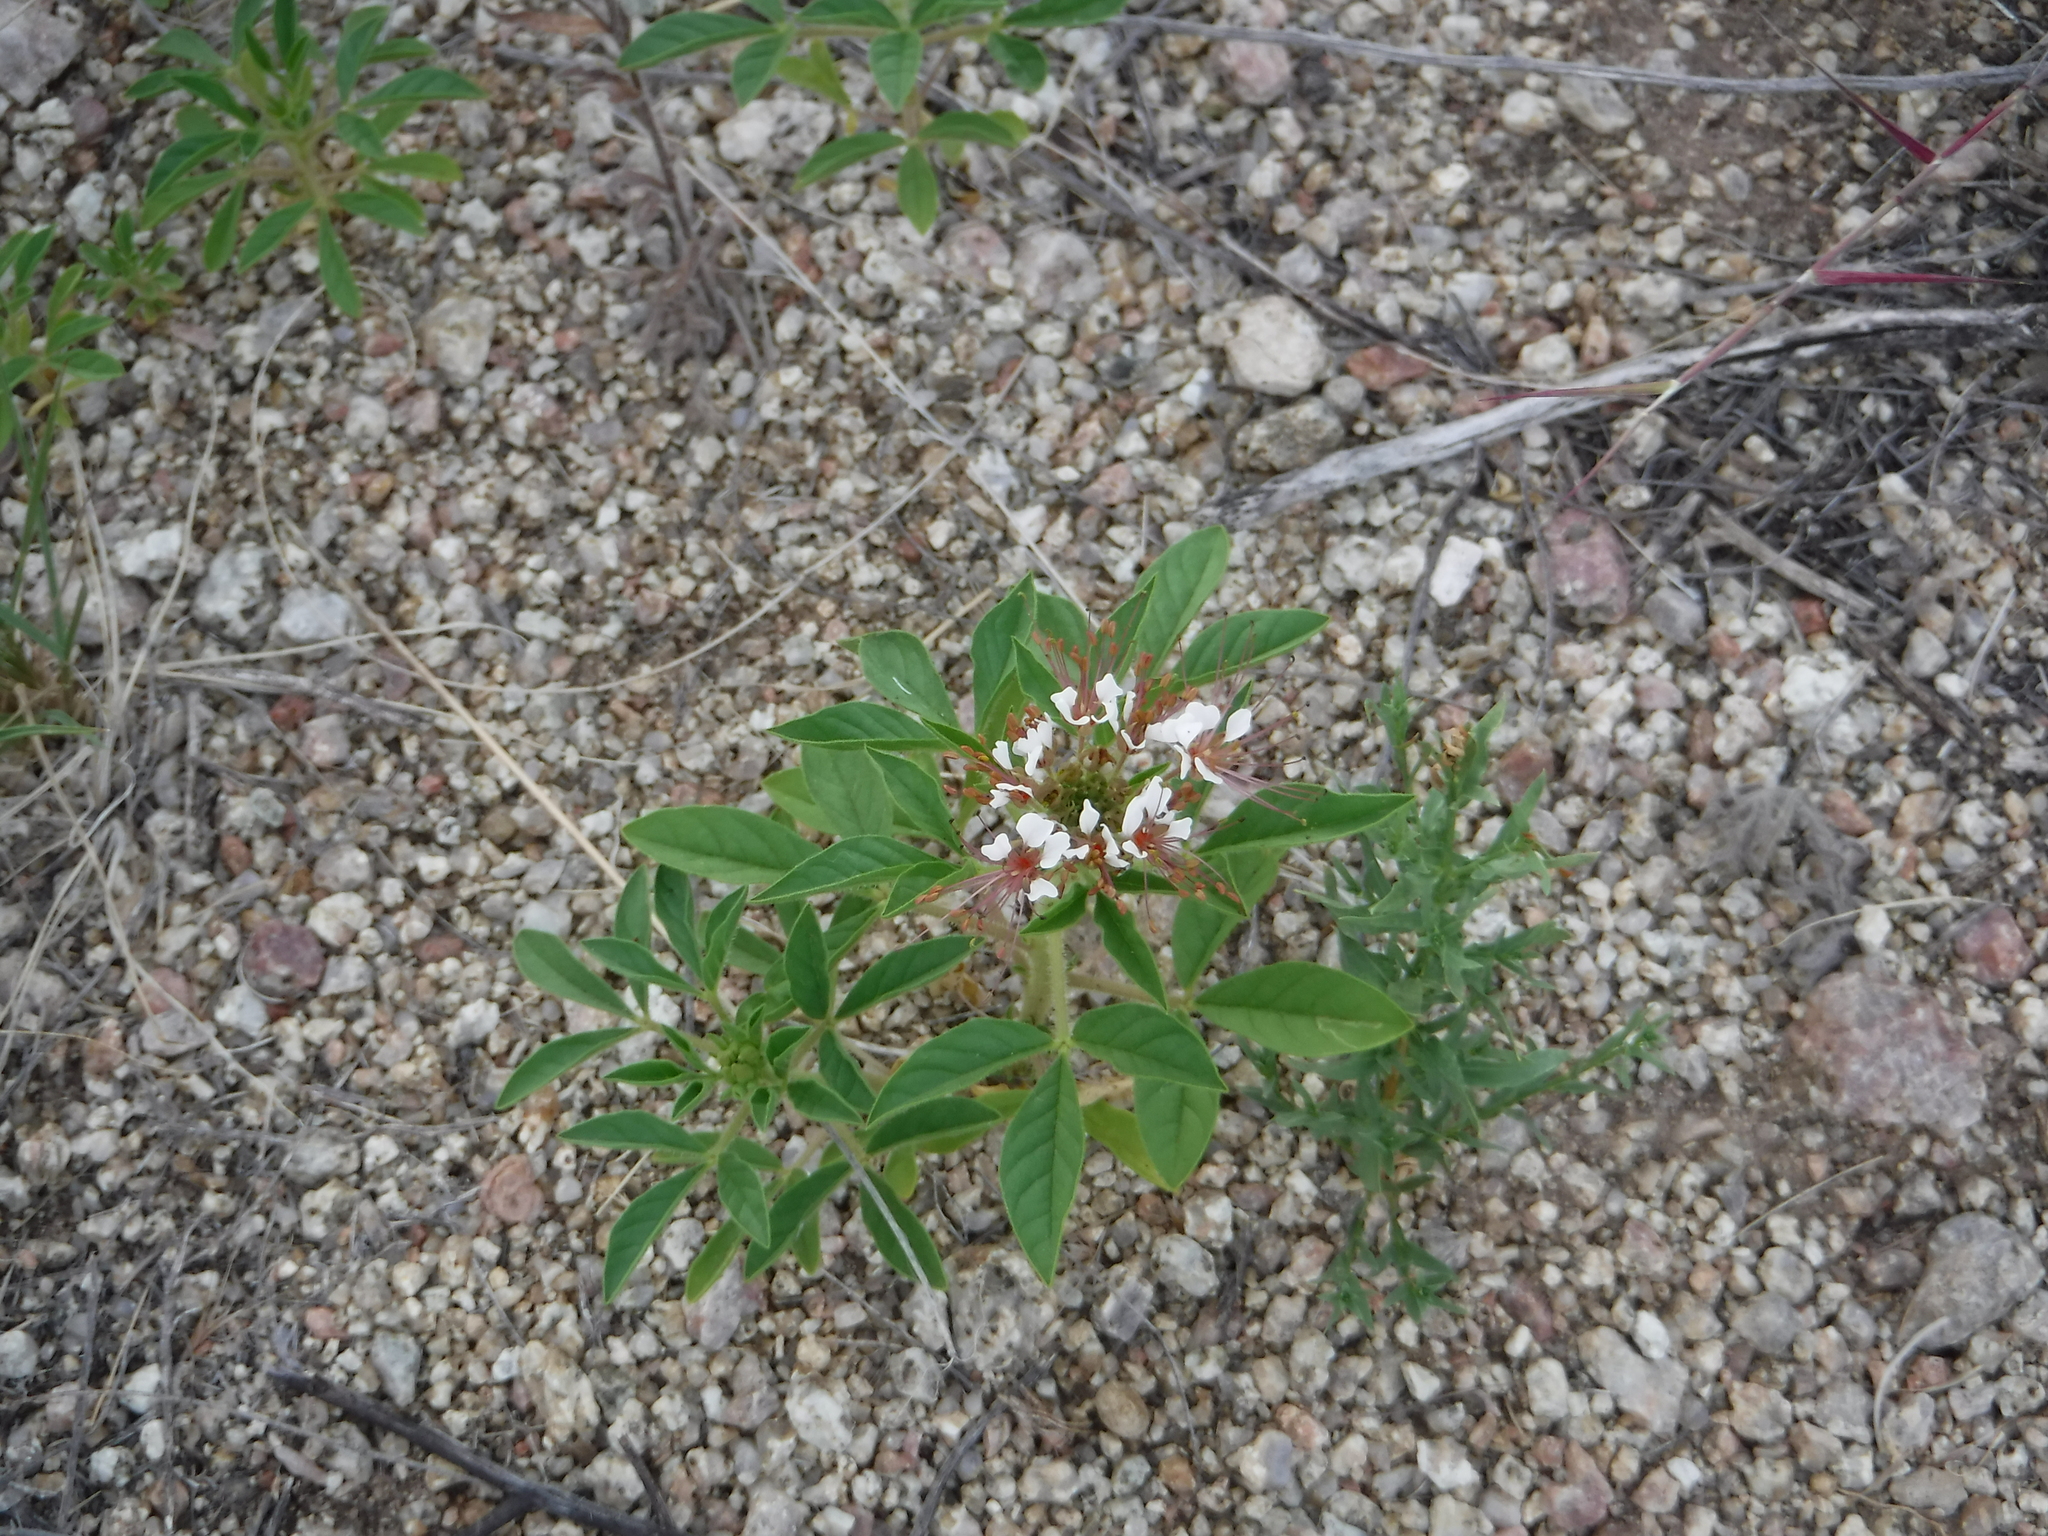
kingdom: Plantae
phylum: Tracheophyta
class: Magnoliopsida
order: Brassicales
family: Cleomaceae
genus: Polanisia
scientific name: Polanisia dodecandra
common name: Clammyweed
